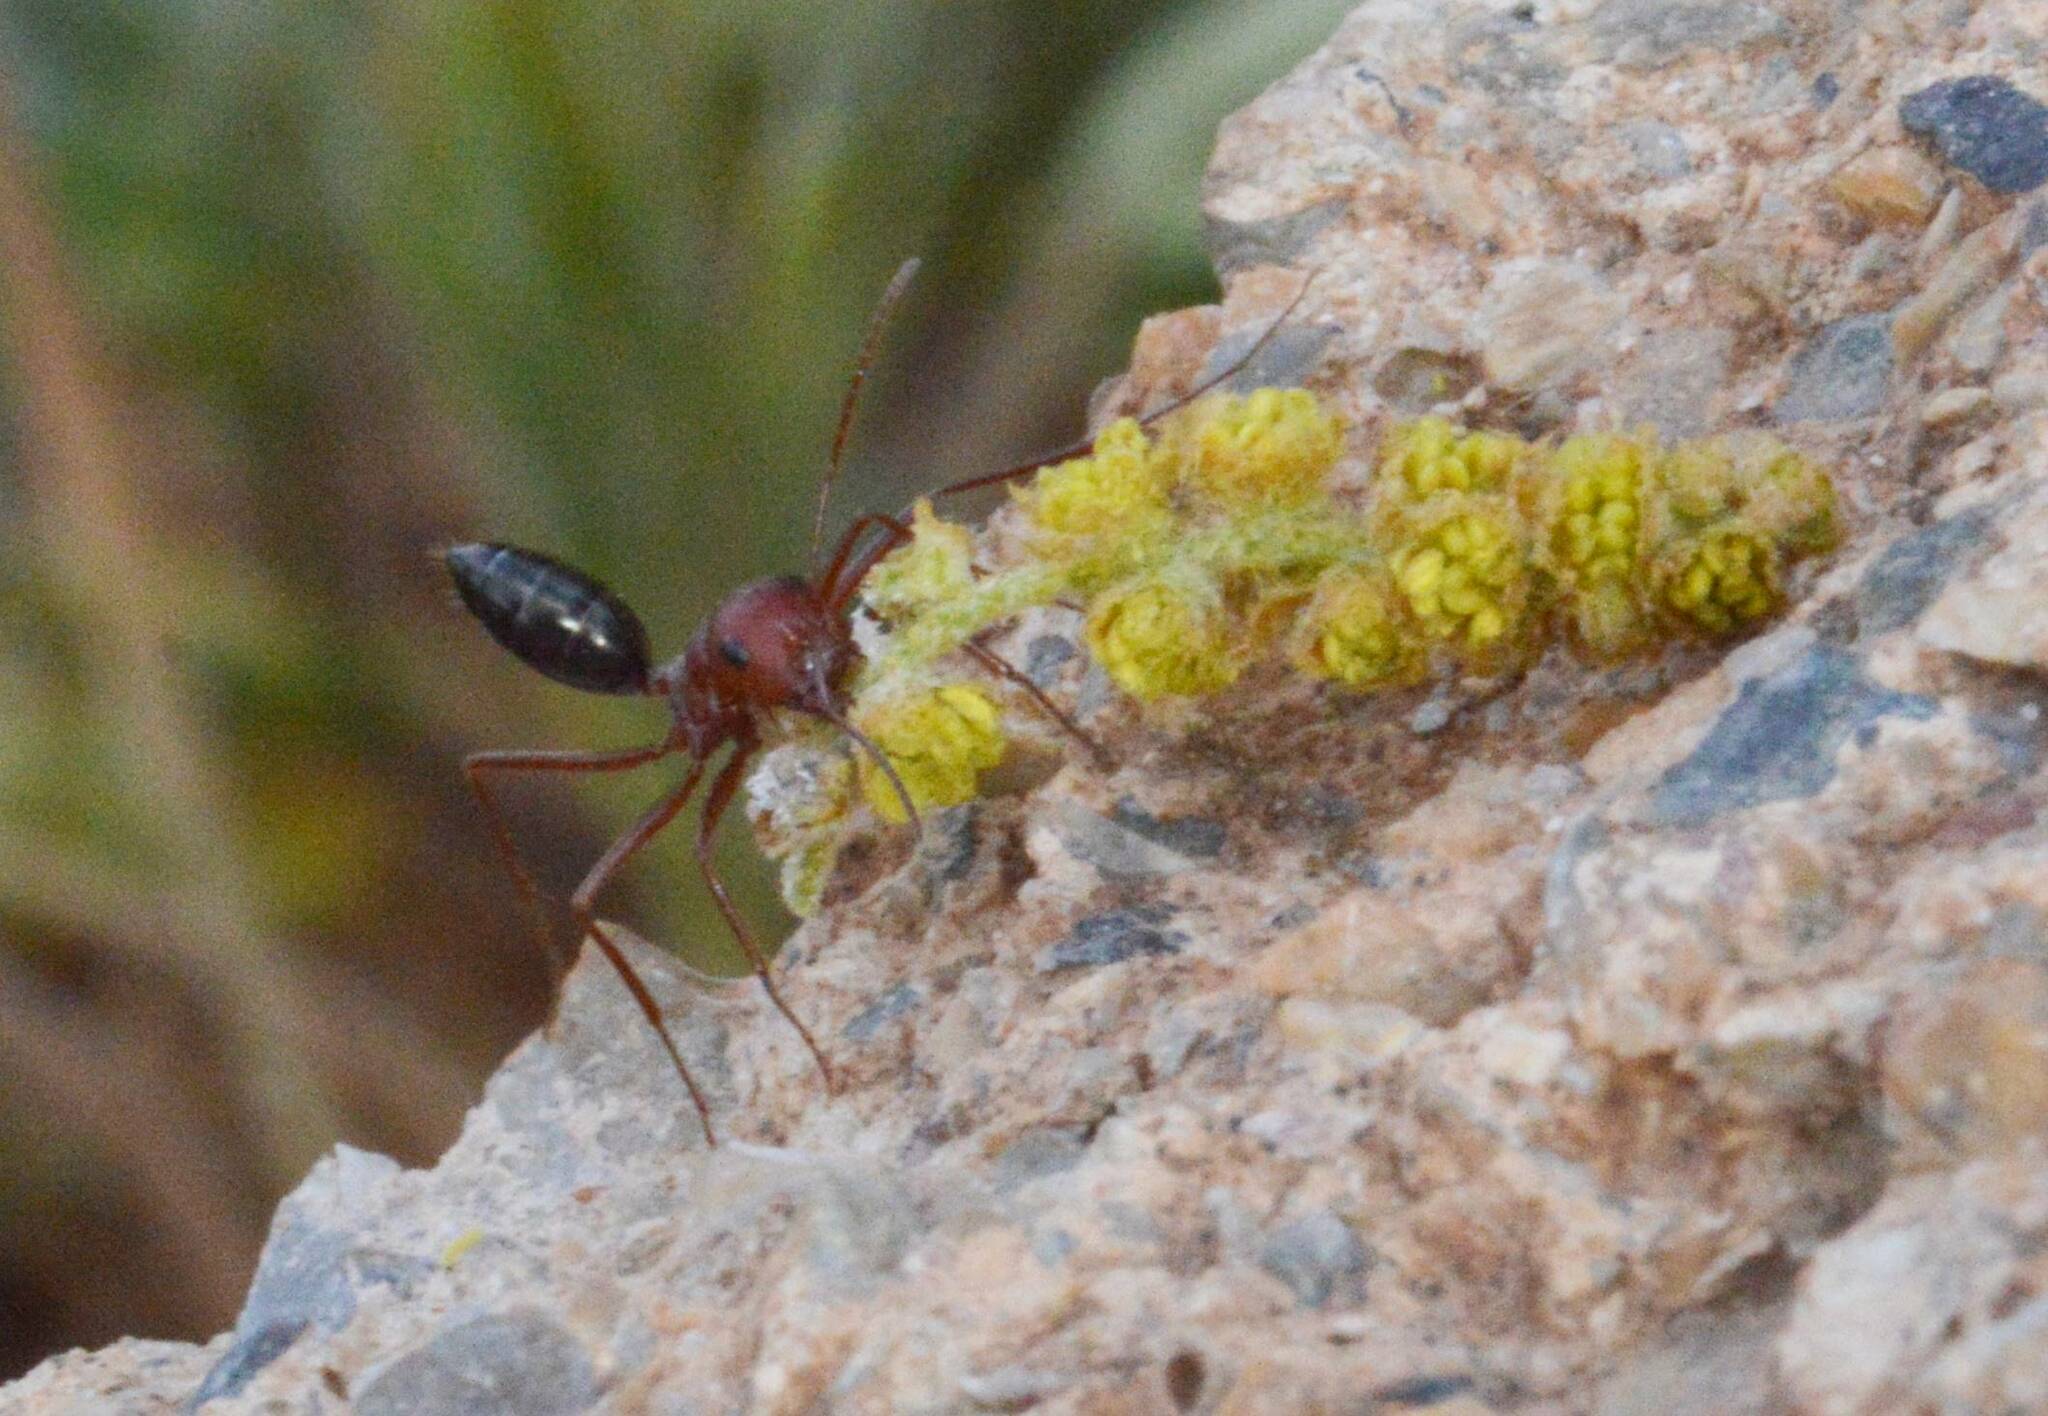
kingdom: Animalia
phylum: Arthropoda
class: Insecta
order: Hymenoptera
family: Formicidae
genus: Cataglyphis
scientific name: Cataglyphis nodus
